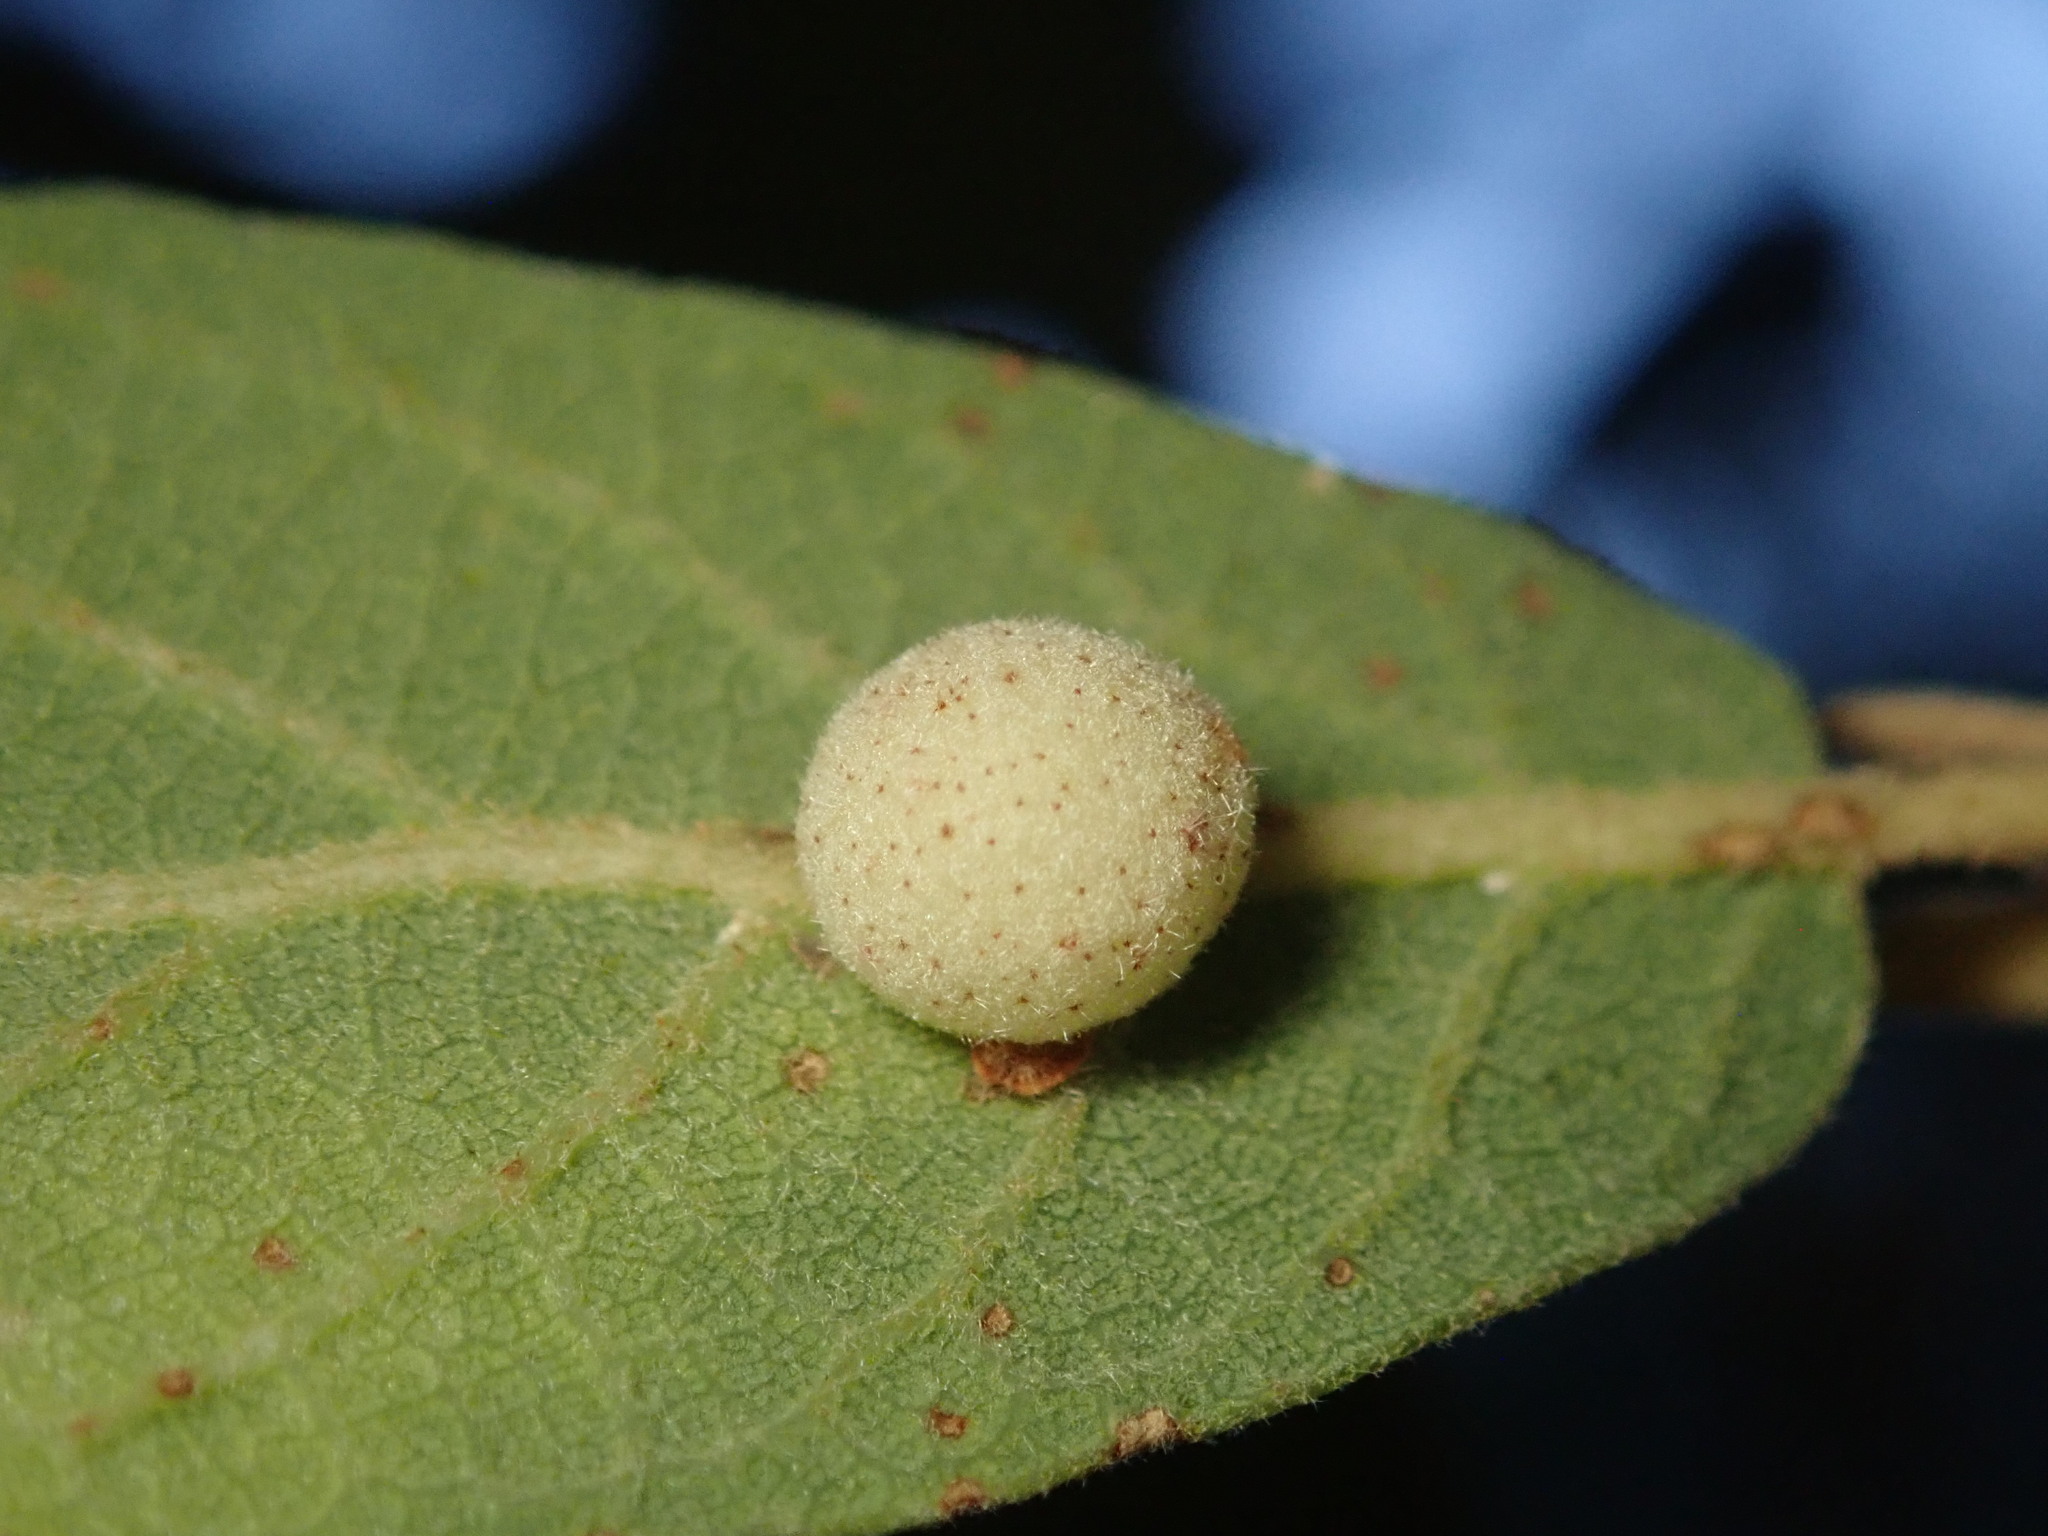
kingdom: Animalia
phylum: Arthropoda
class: Insecta
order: Hymenoptera
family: Cynipidae
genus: Cynips
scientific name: Cynips Antron tomkursari
